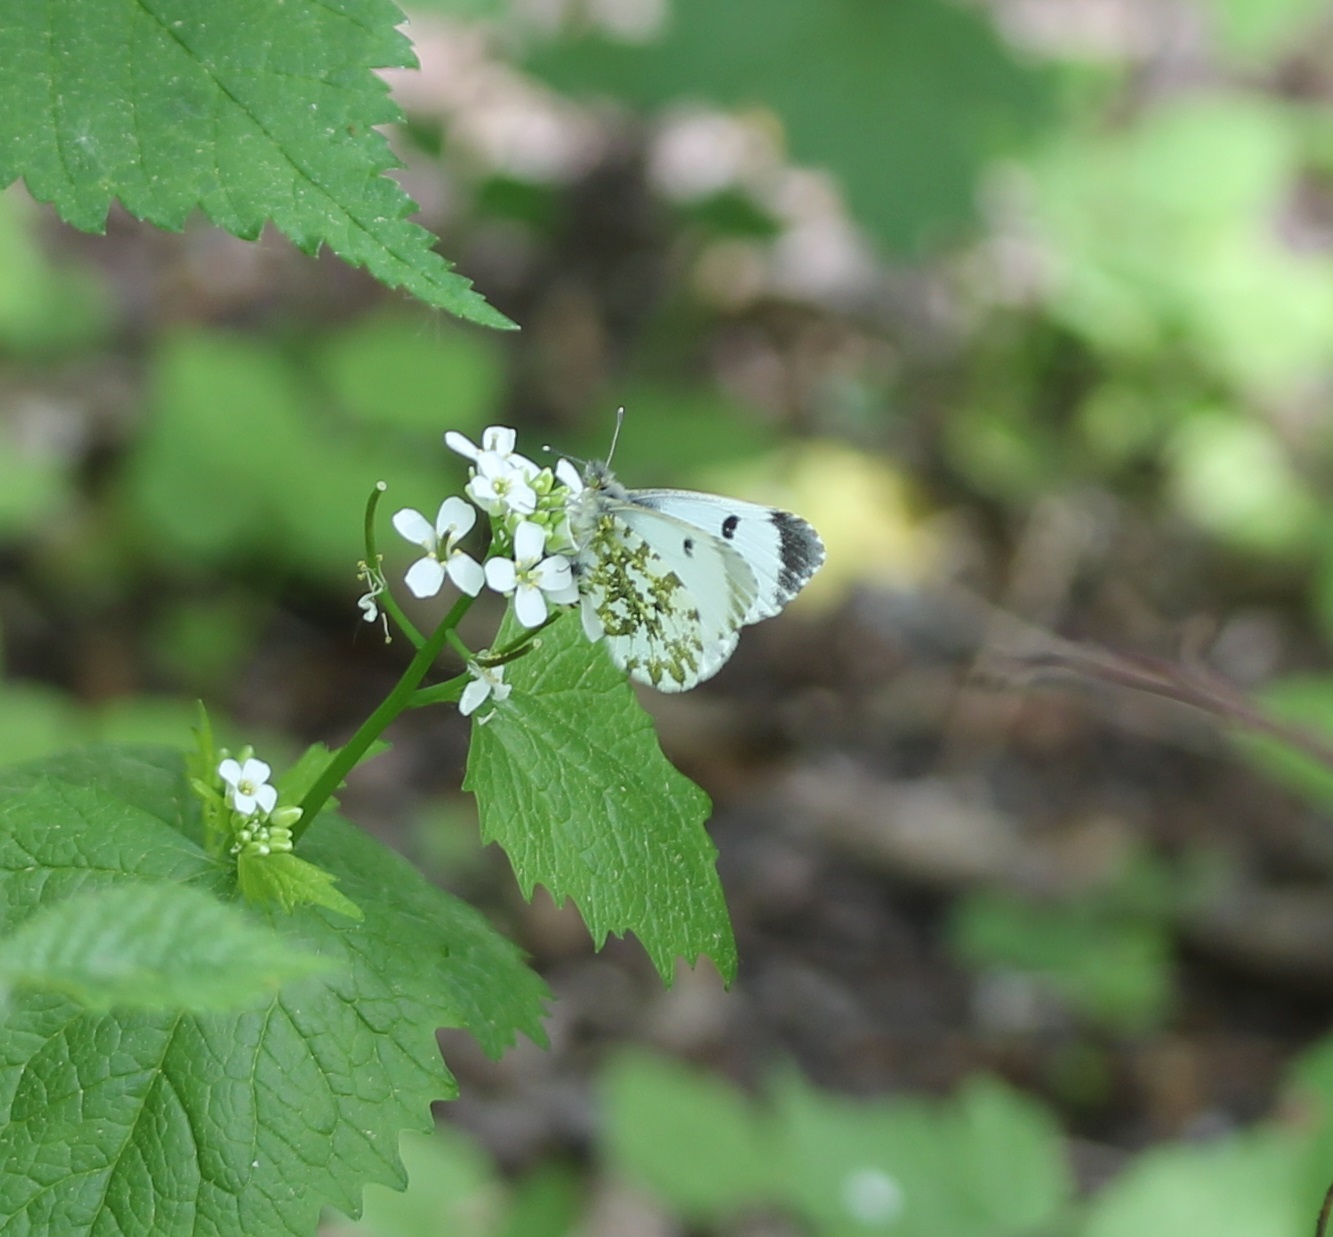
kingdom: Animalia
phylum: Arthropoda
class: Insecta
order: Lepidoptera
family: Pieridae
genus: Anthocharis
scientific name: Anthocharis cardamines
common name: Orange-tip
